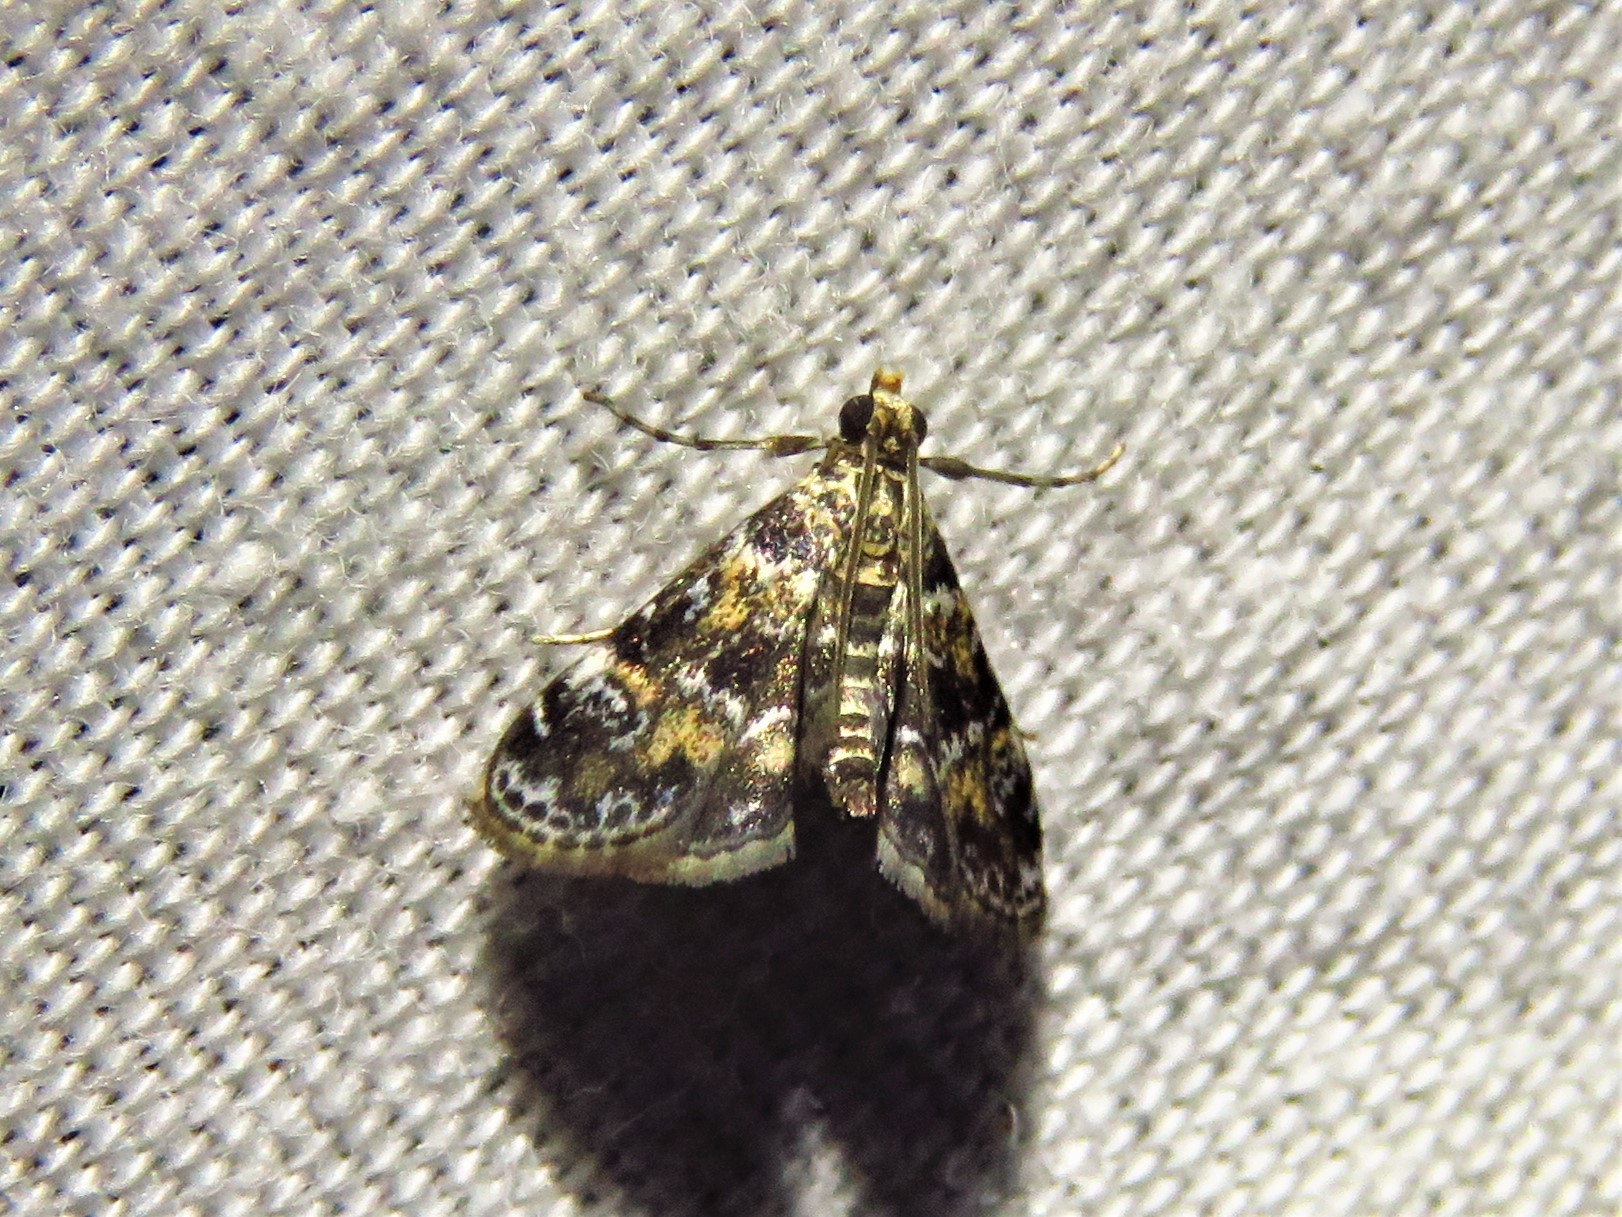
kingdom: Animalia
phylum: Arthropoda
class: Insecta
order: Lepidoptera
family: Crambidae
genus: Elophila
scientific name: Elophila obliteralis
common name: Waterlily leafcutter moth
